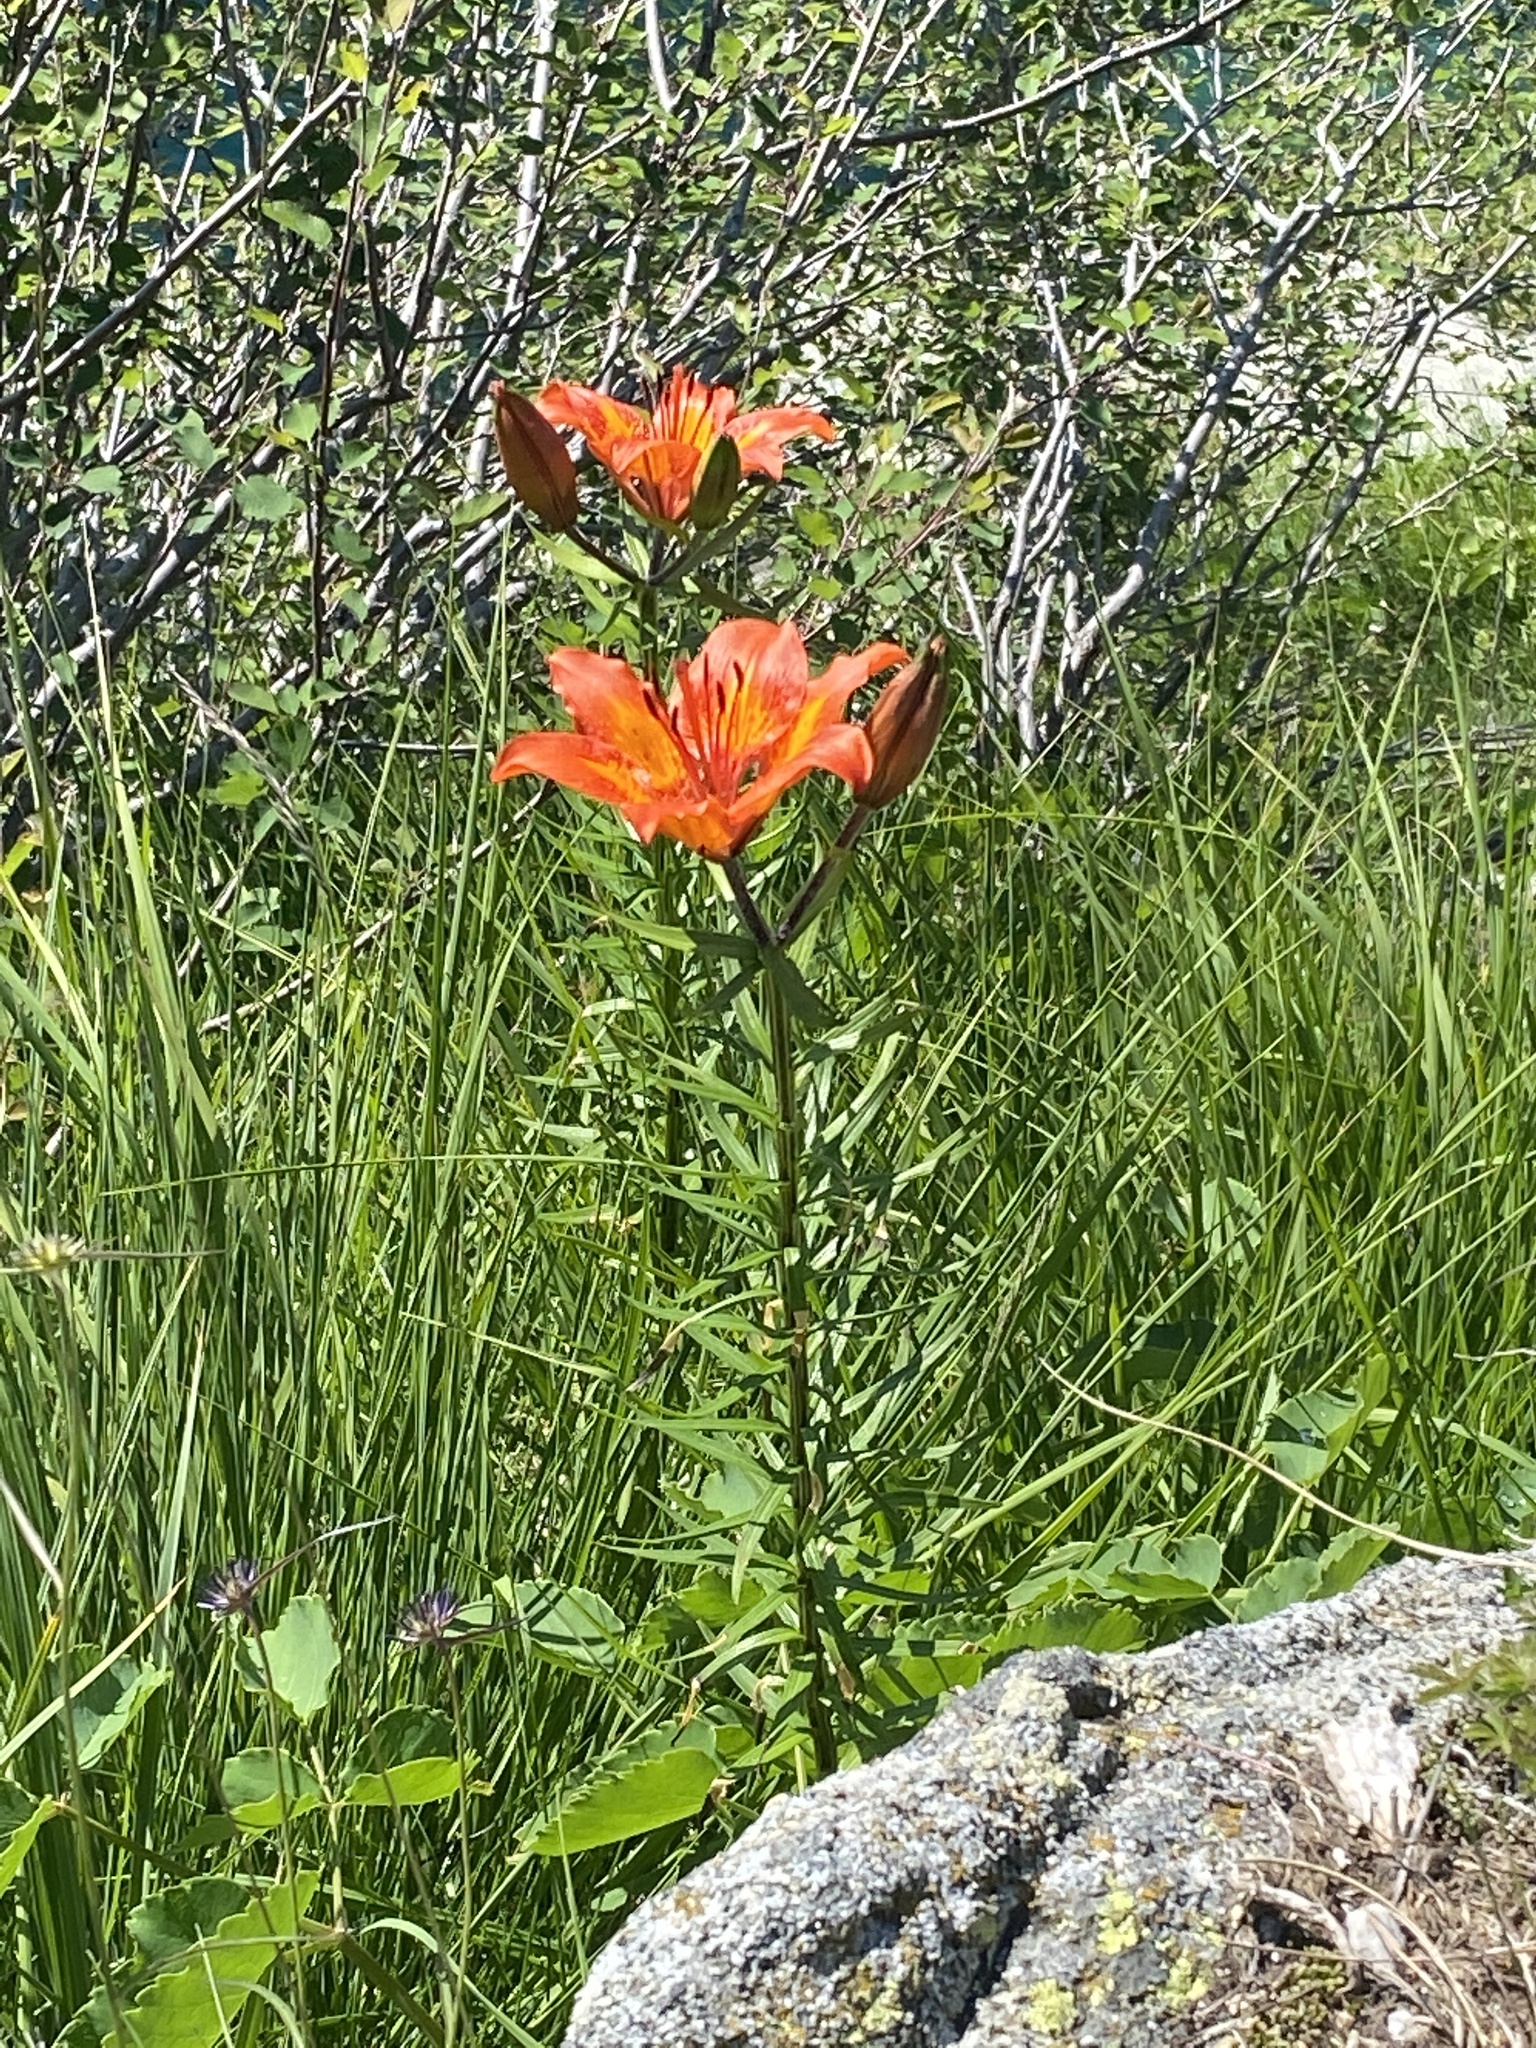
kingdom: Plantae
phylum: Tracheophyta
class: Liliopsida
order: Liliales
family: Liliaceae
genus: Lilium
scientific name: Lilium bulbiferum
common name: Orange lily
